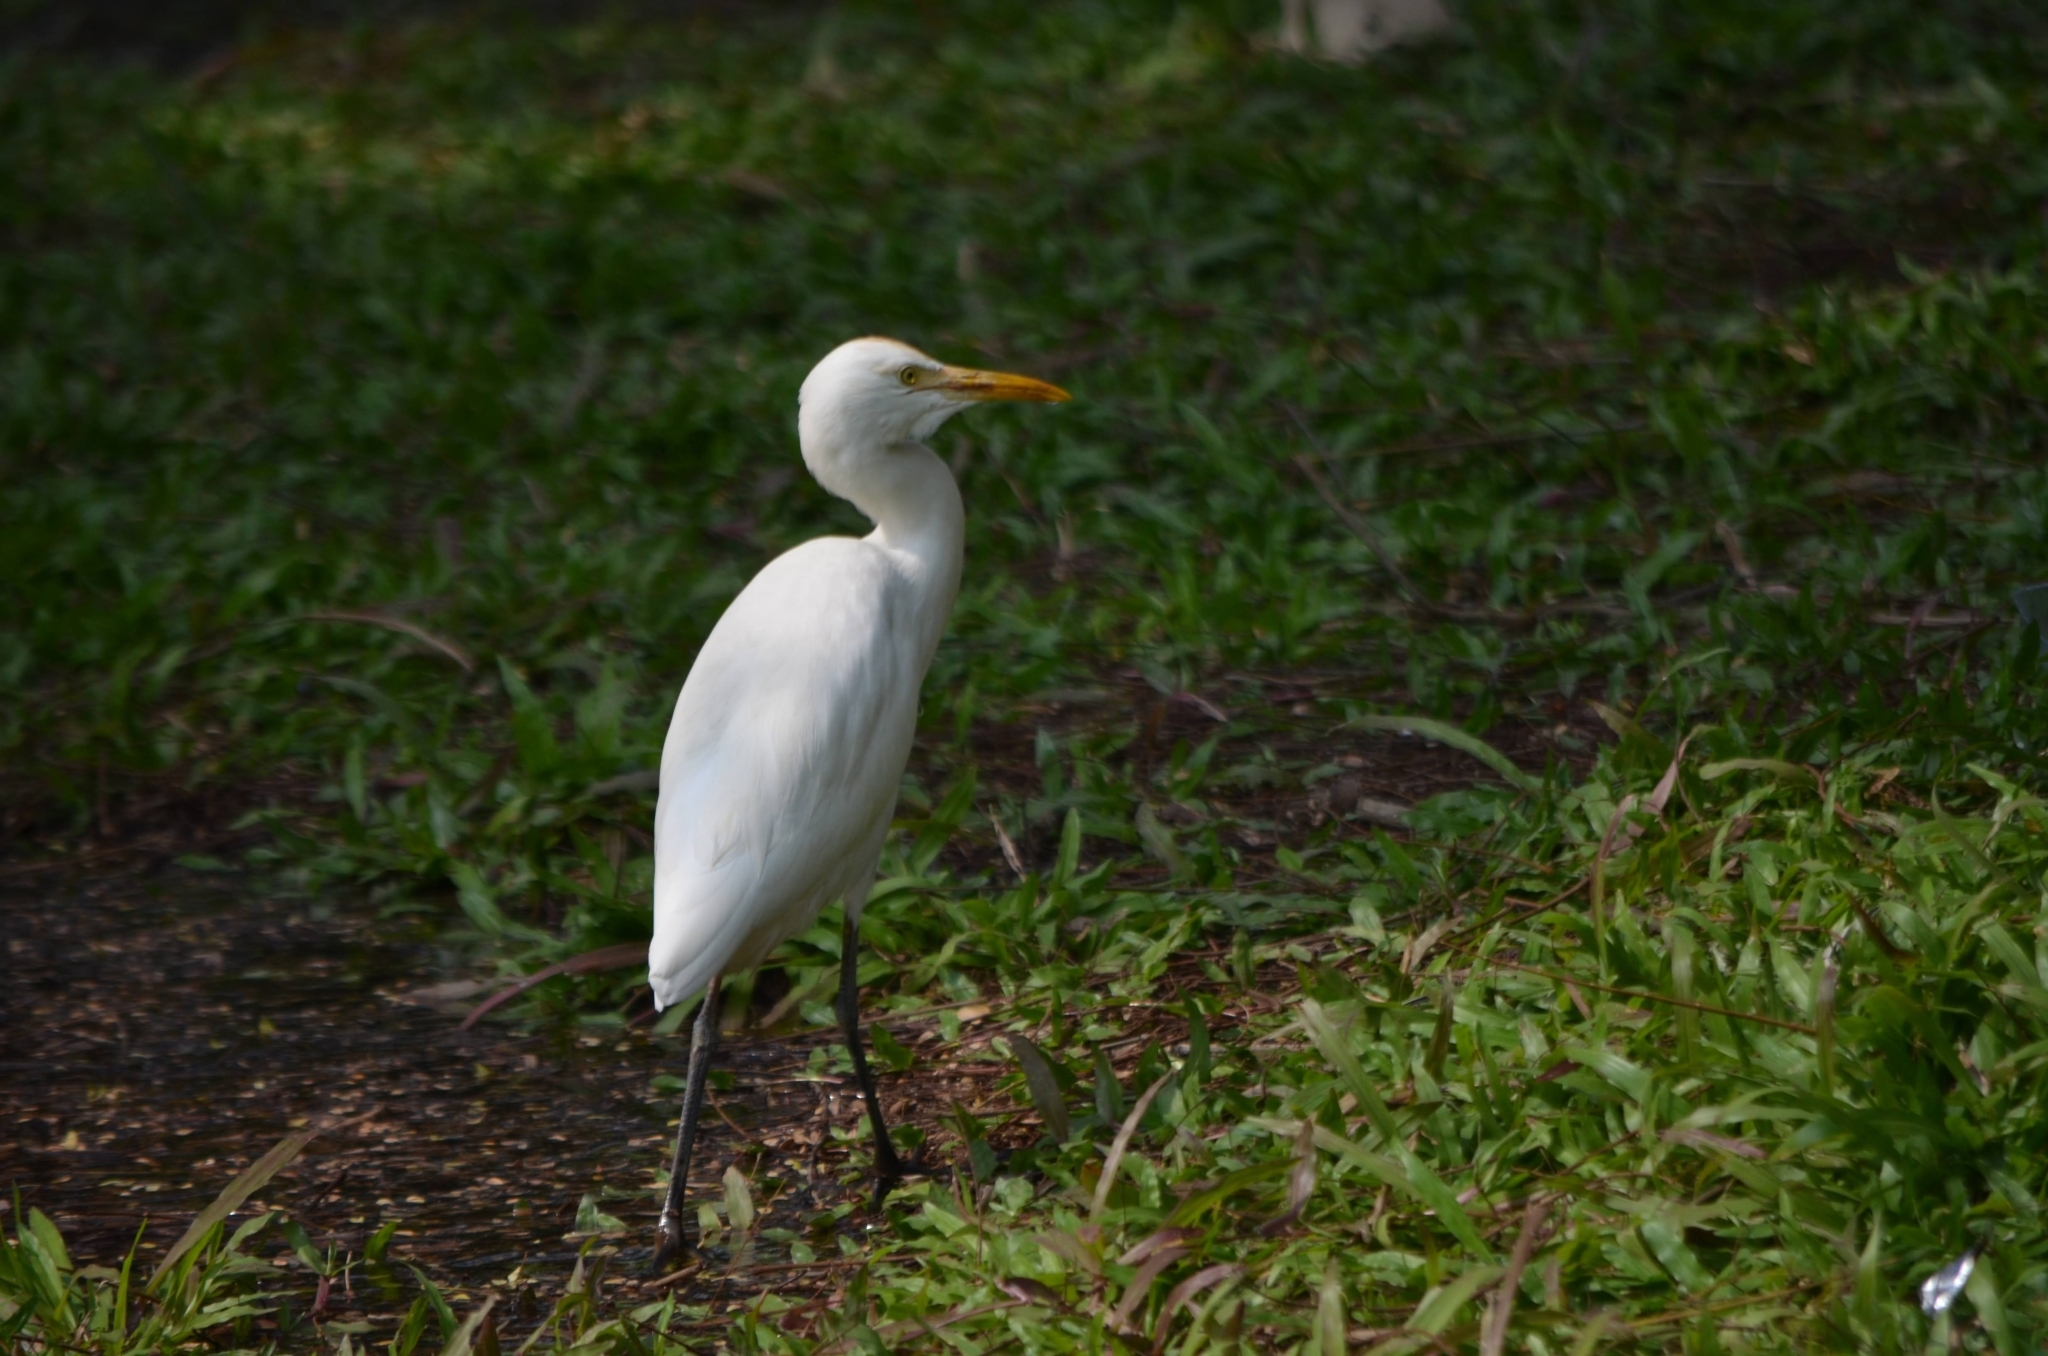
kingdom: Animalia
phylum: Chordata
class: Aves
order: Pelecaniformes
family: Ardeidae
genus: Bubulcus
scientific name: Bubulcus coromandus
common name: Eastern cattle egret
